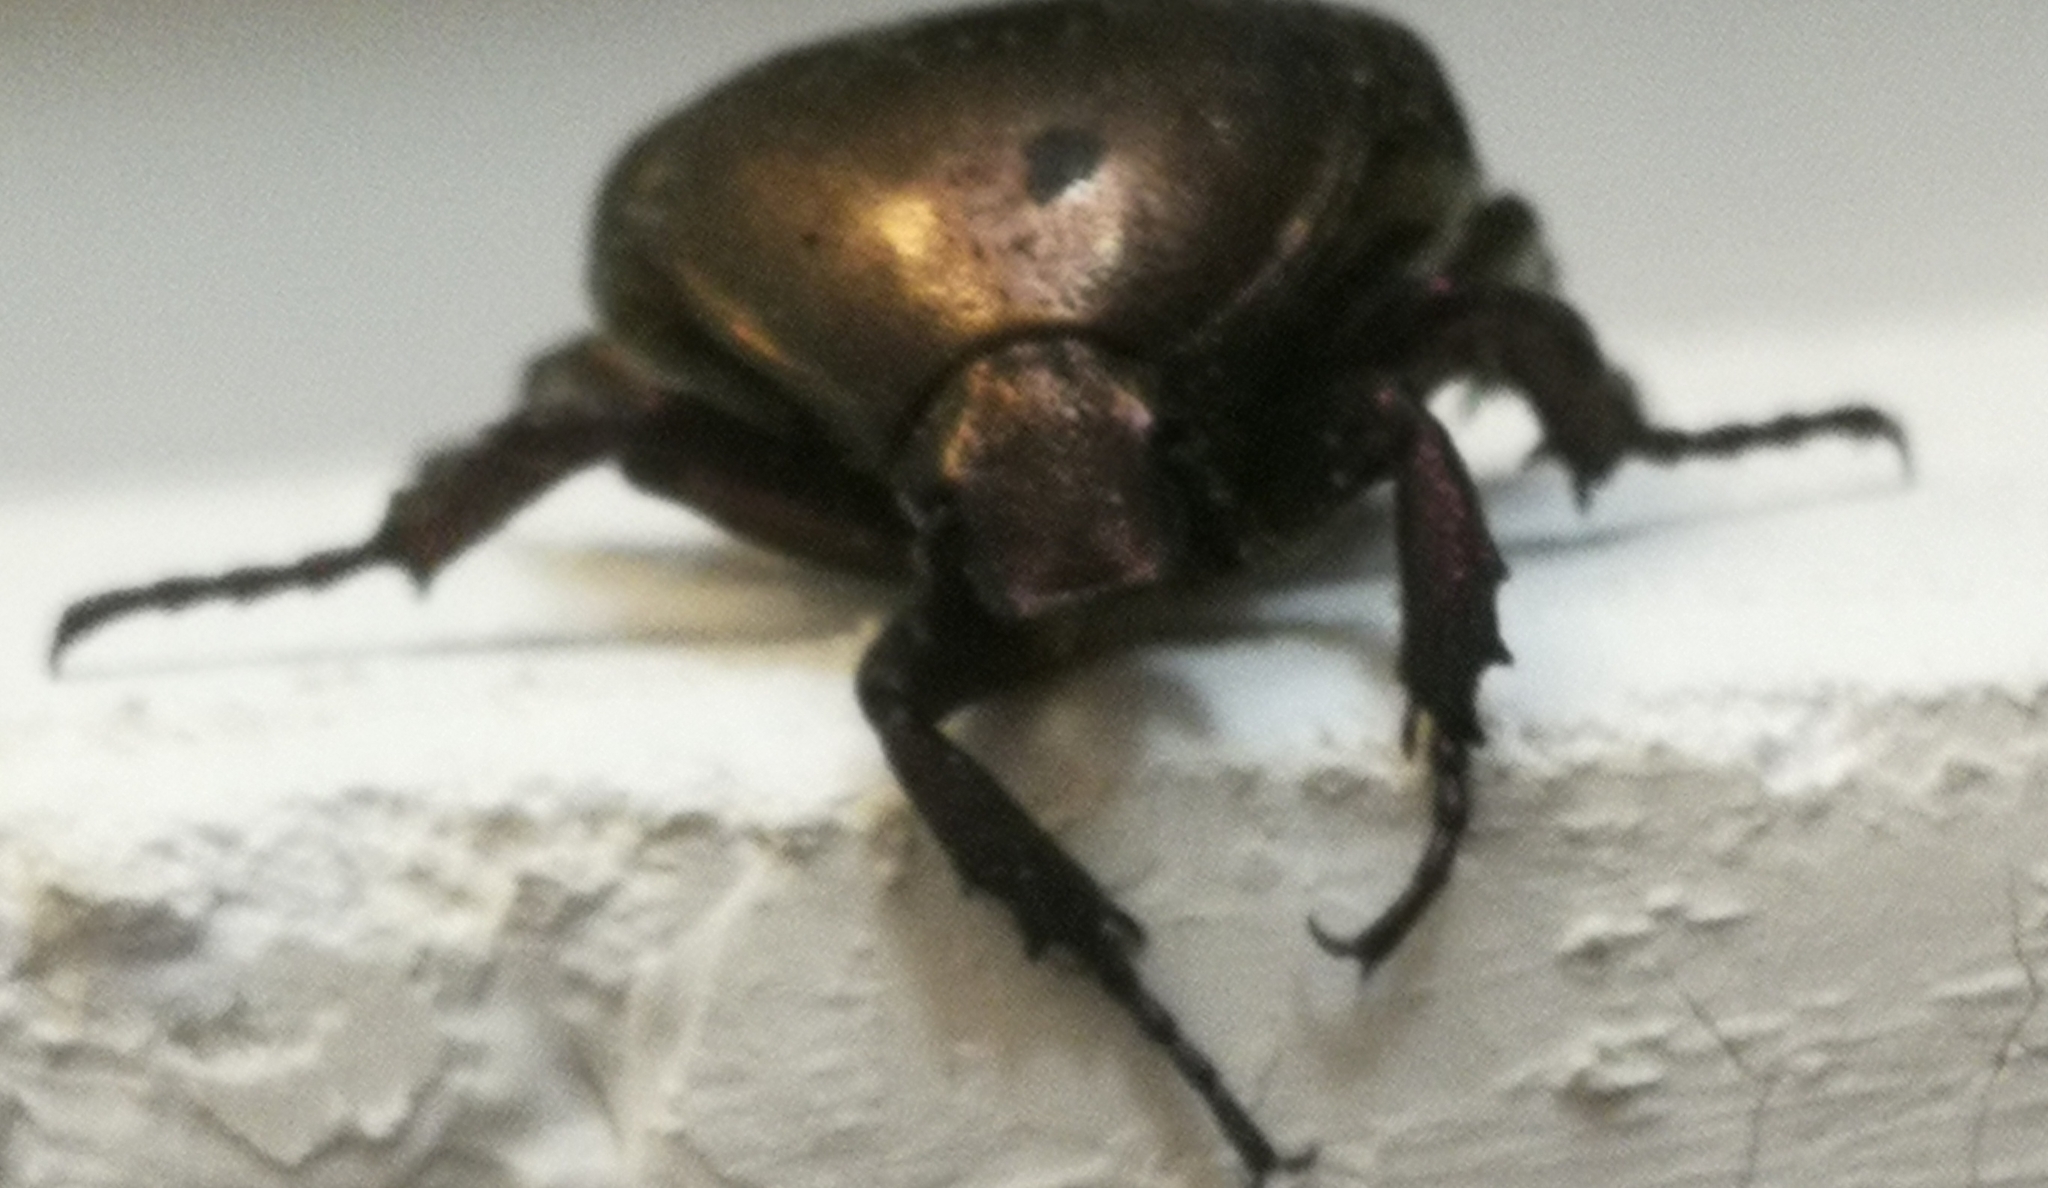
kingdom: Animalia
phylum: Arthropoda
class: Insecta
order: Coleoptera
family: Scarabaeidae
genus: Protaetia
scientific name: Protaetia cuprea
